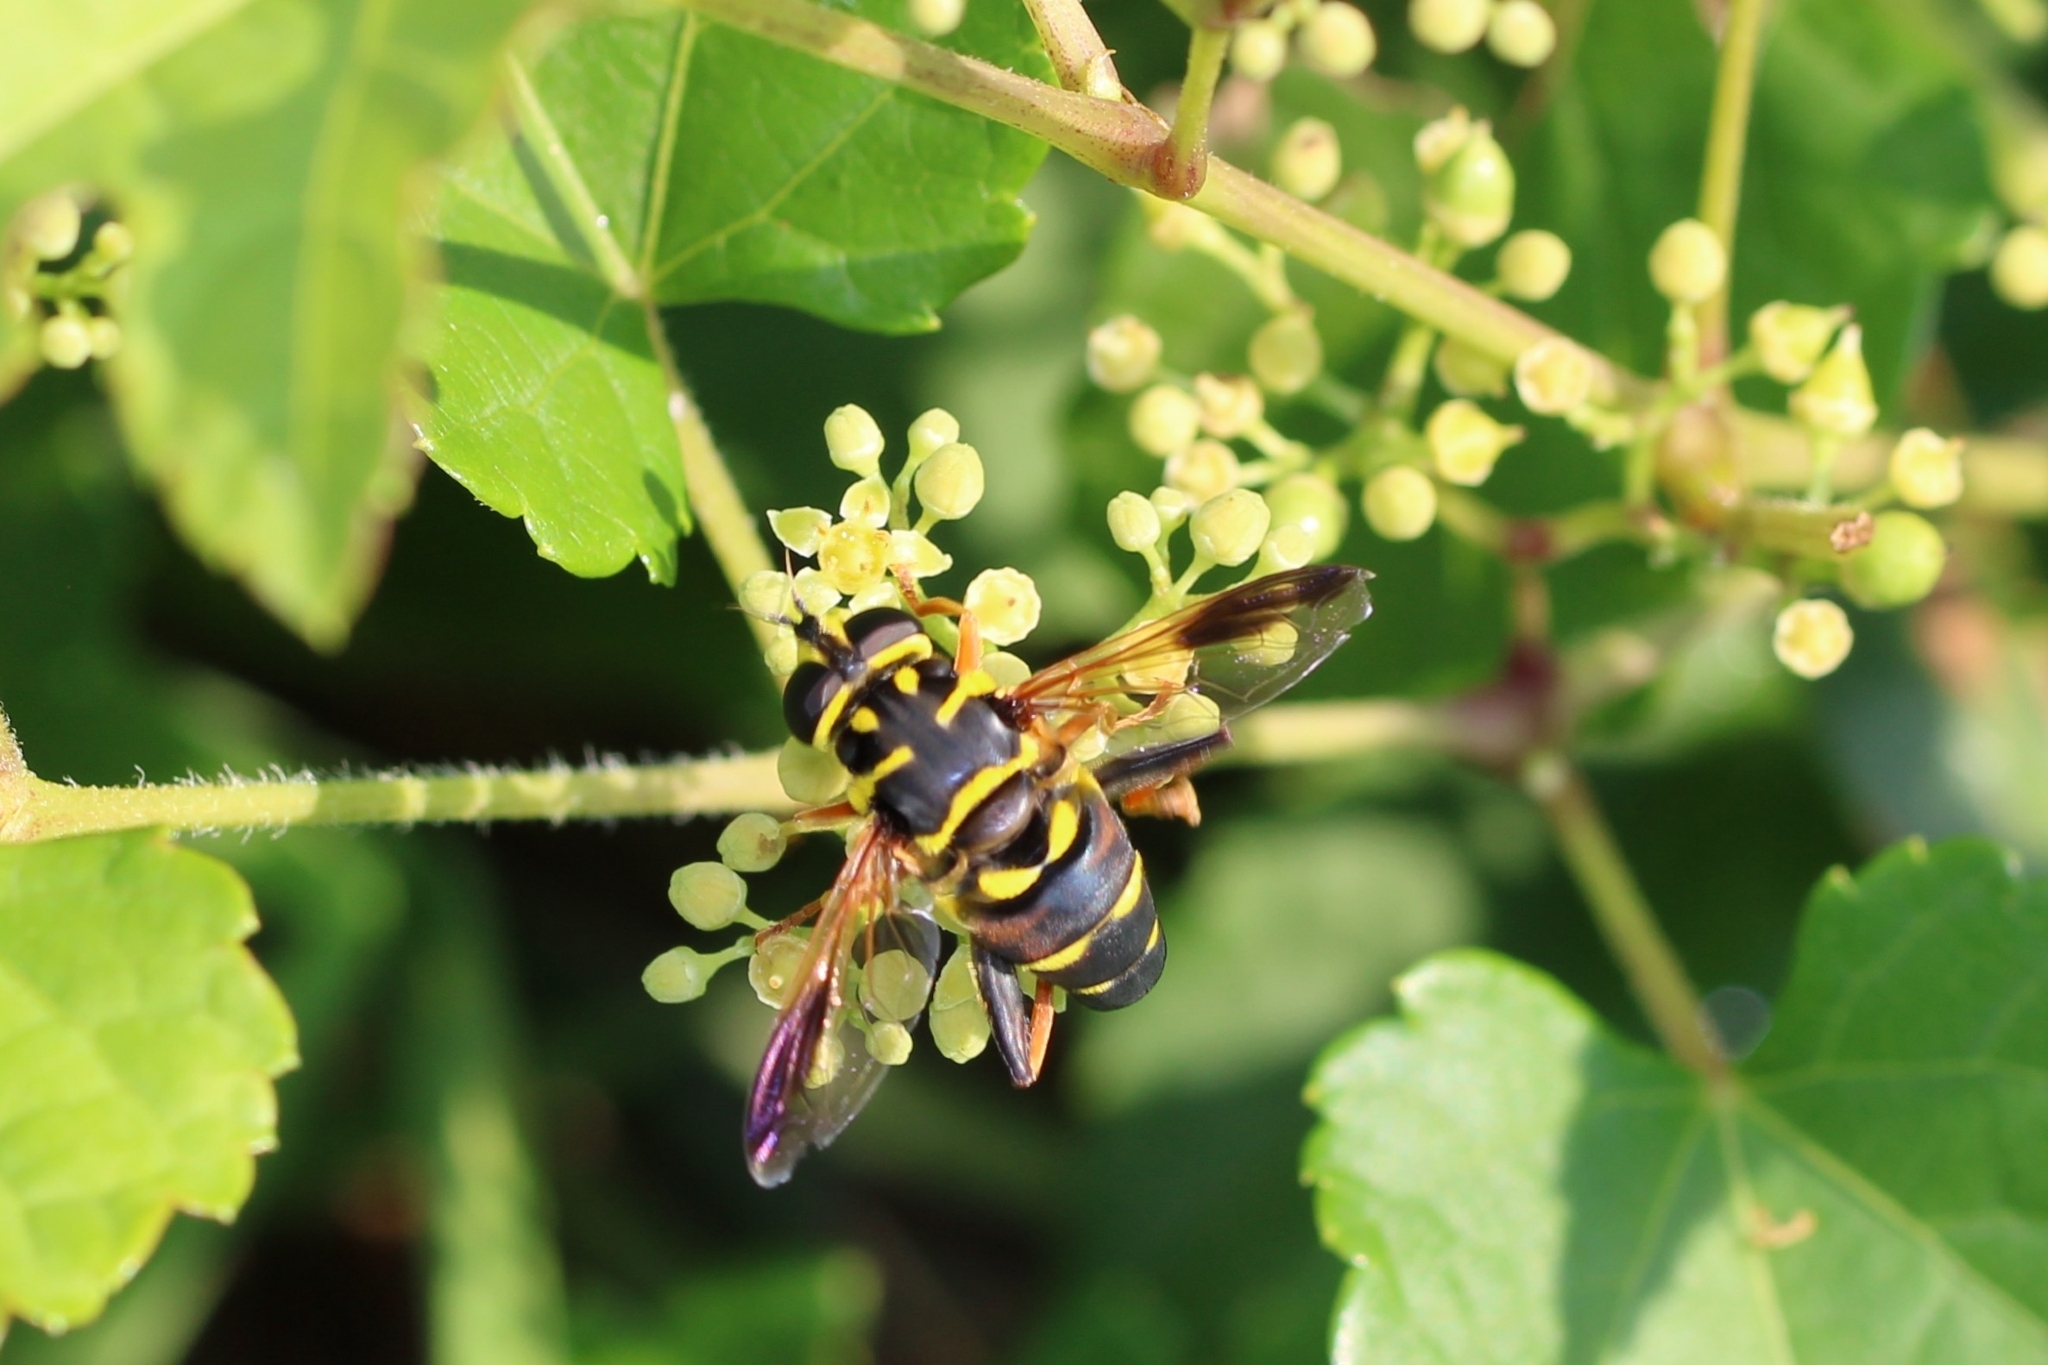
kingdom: Animalia
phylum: Arthropoda
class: Insecta
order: Diptera
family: Syrphidae
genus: Meromacrus
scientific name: Meromacrus acutus
